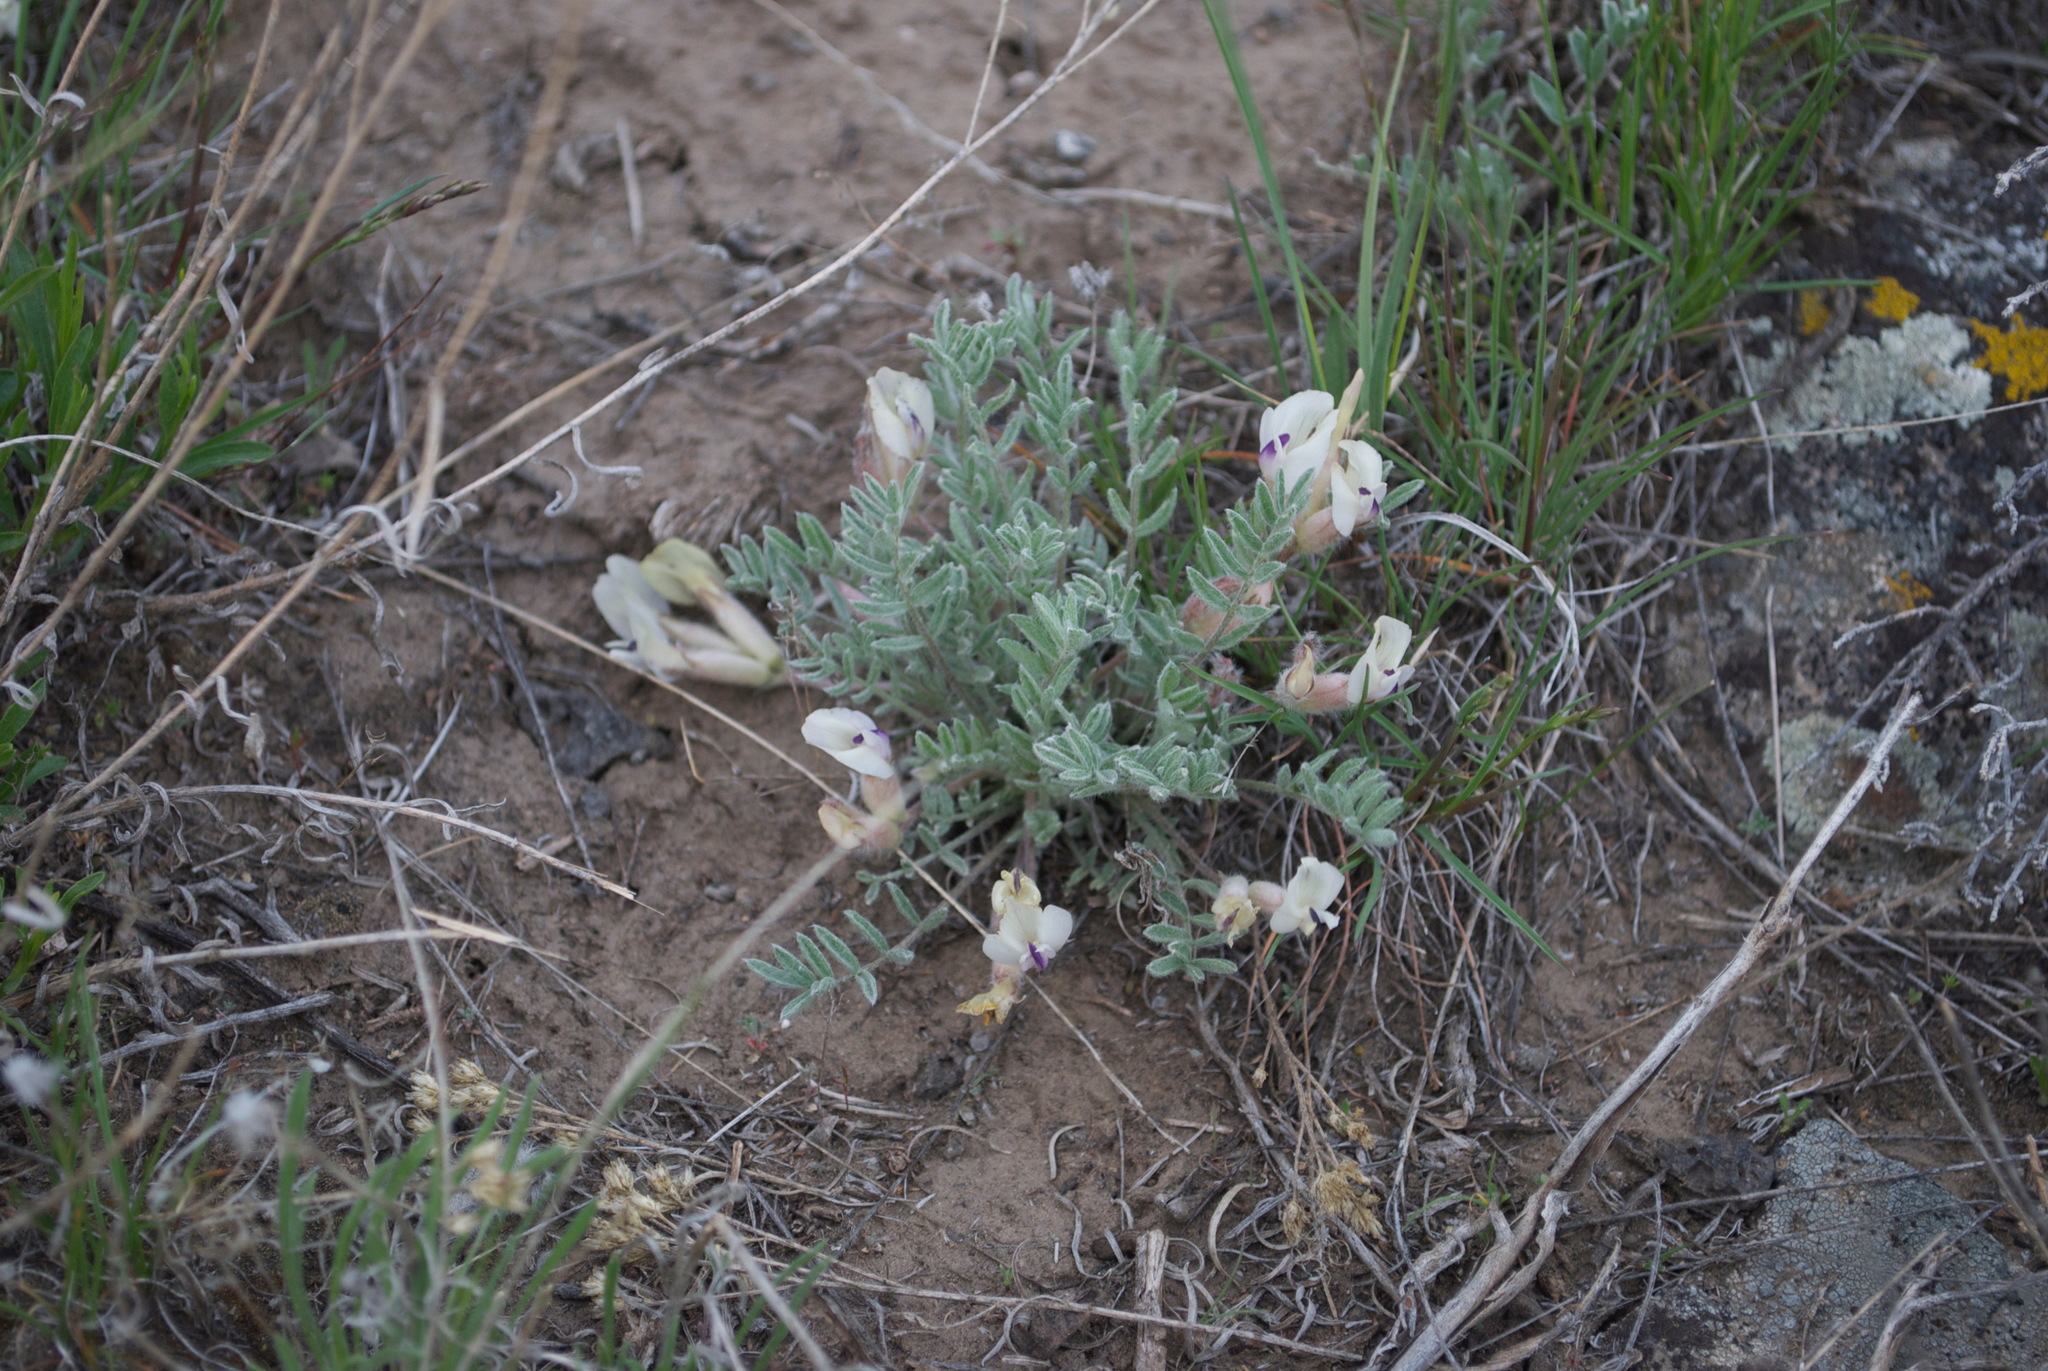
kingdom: Plantae
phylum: Tracheophyta
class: Magnoliopsida
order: Fabales
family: Fabaceae
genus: Astragalus
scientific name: Astragalus purshii
